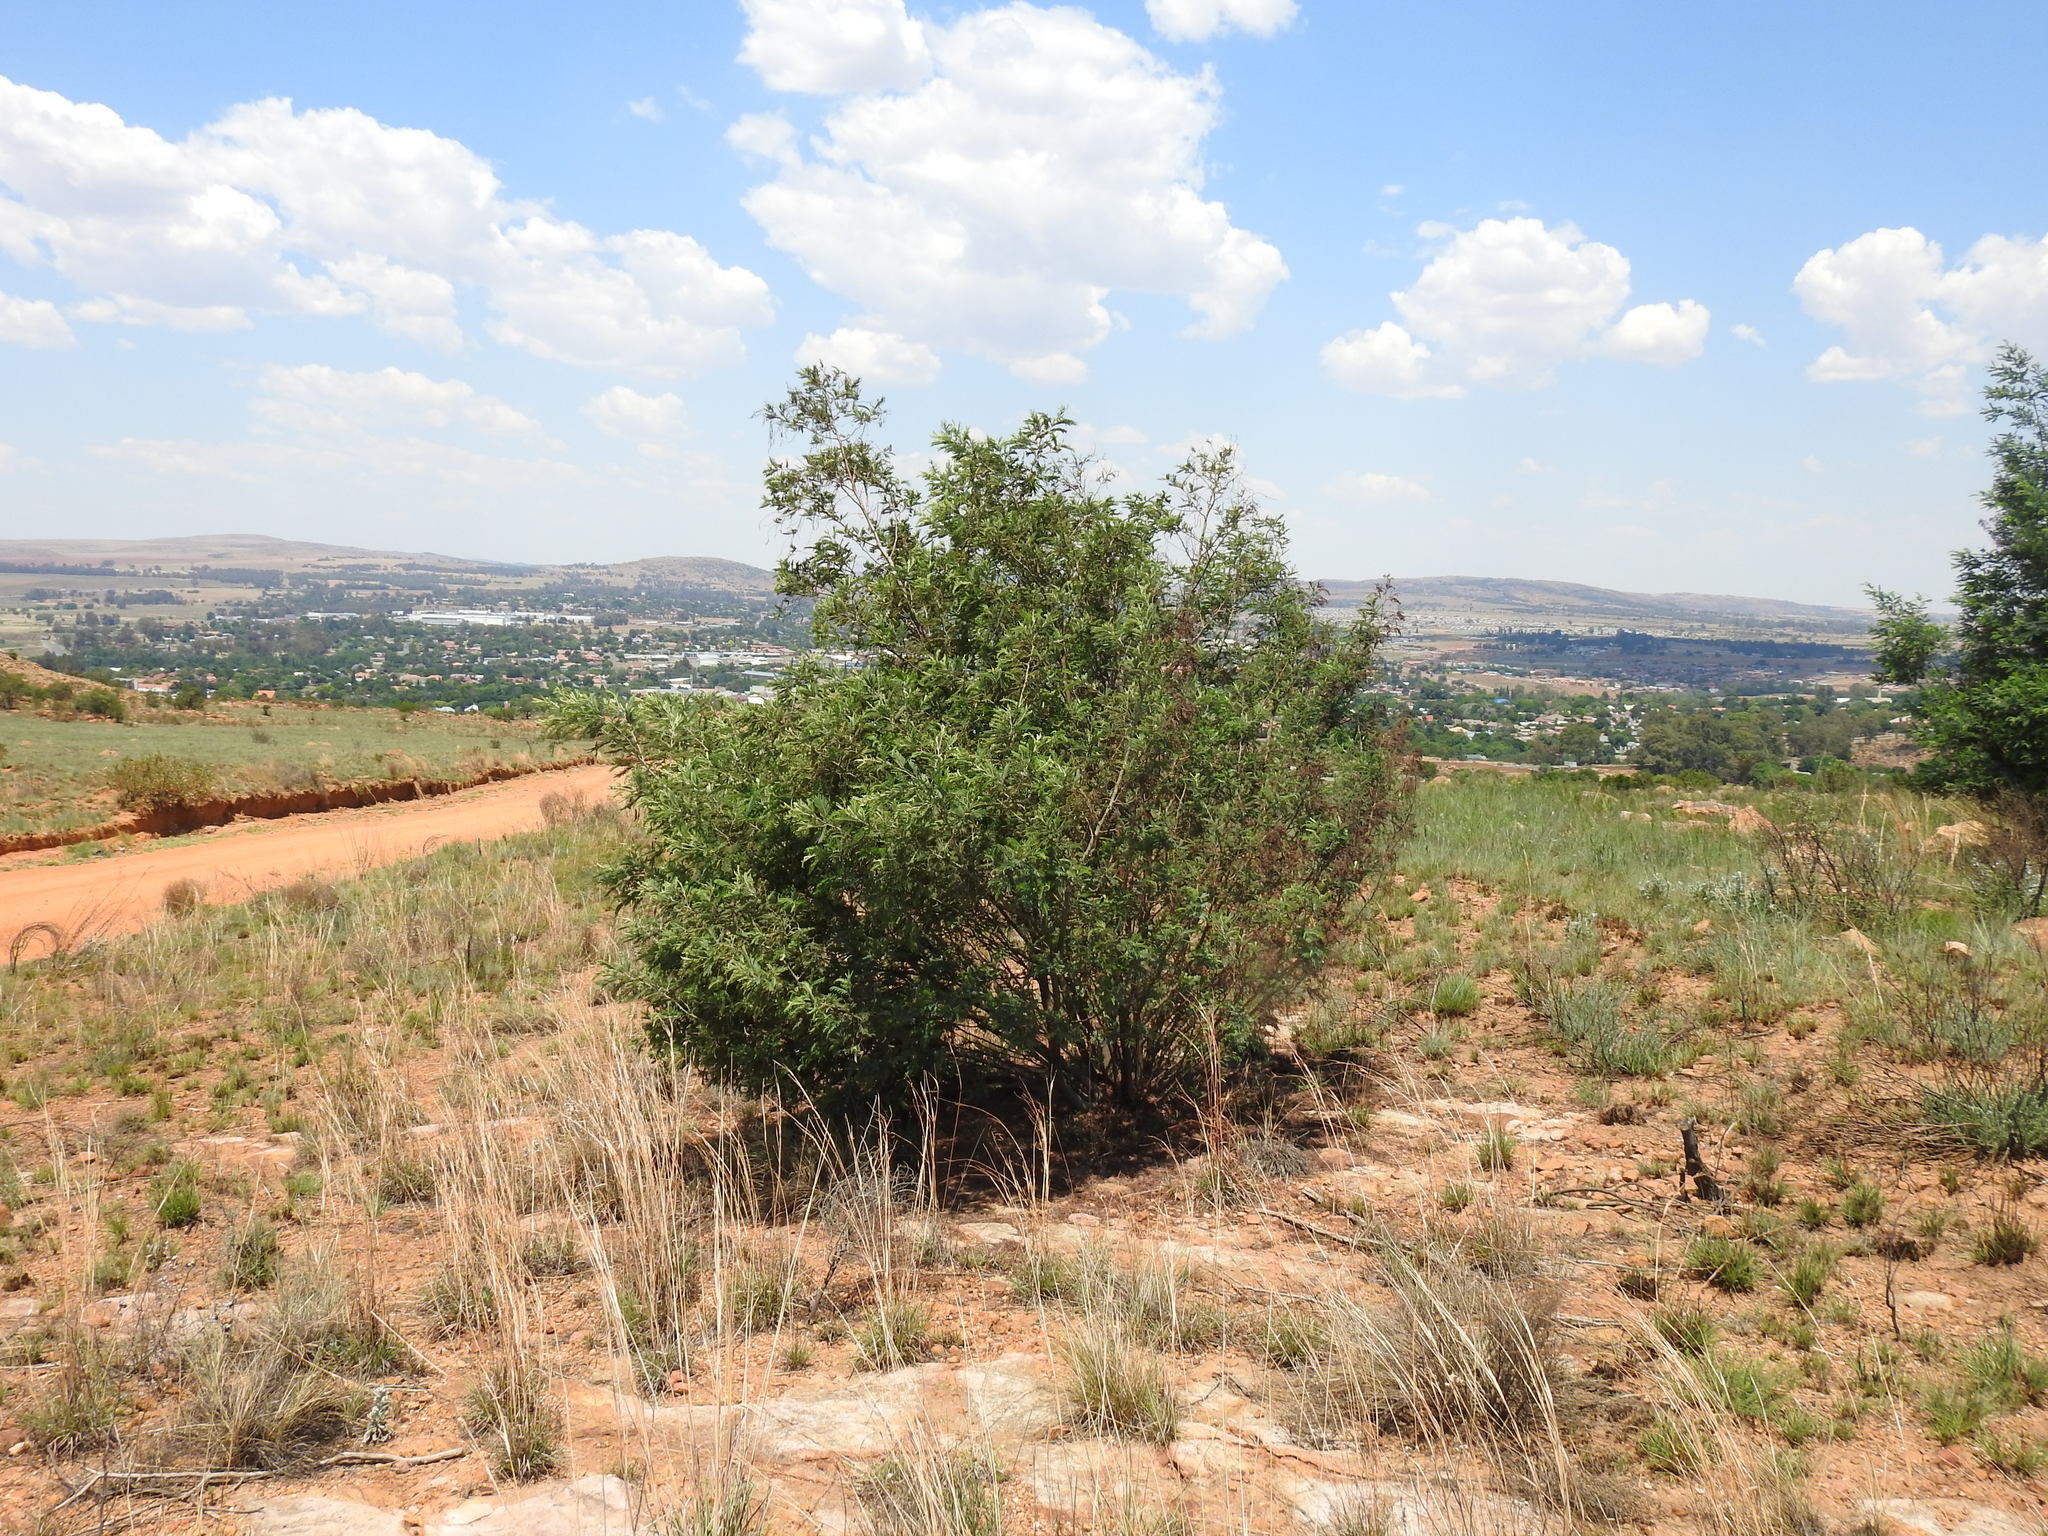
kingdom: Plantae
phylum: Tracheophyta
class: Magnoliopsida
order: Fabales
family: Fabaceae
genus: Acacia
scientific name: Acacia dealbata
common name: Silver wattle
